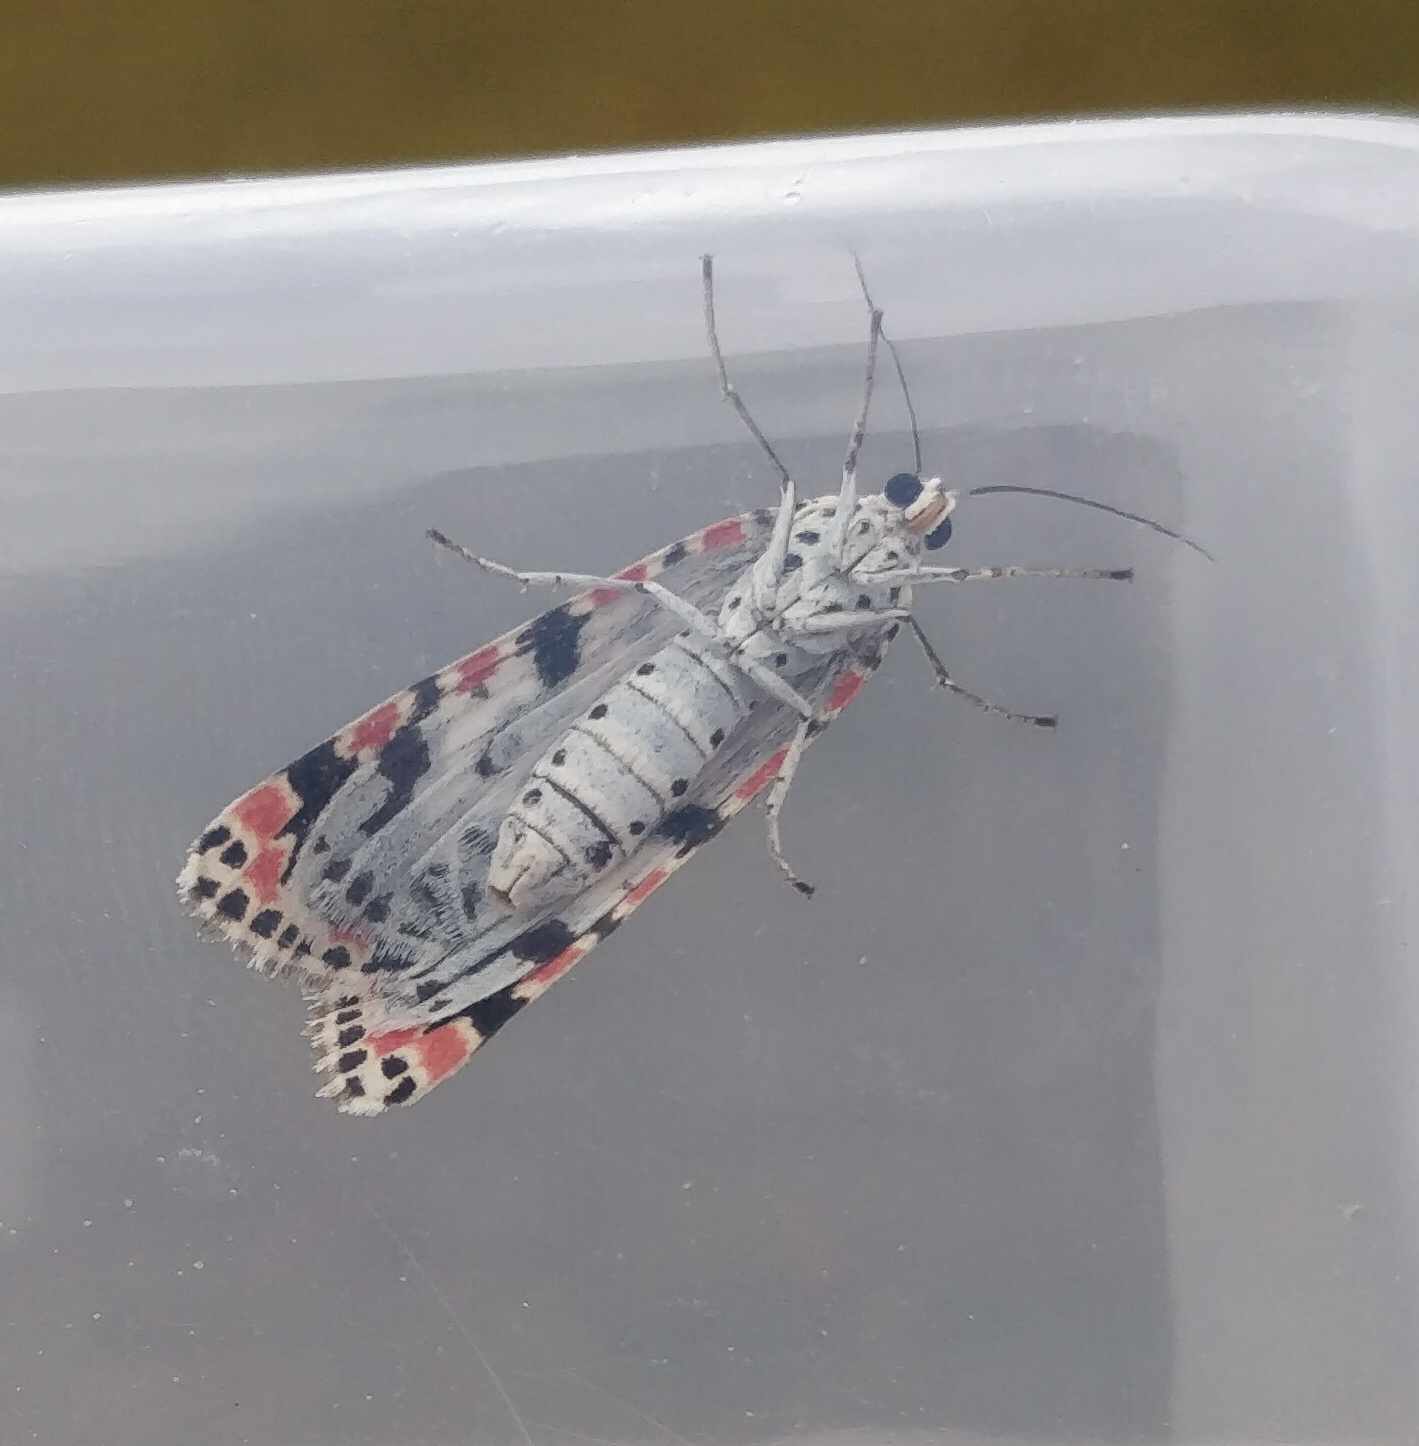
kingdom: Animalia
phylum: Arthropoda
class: Insecta
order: Lepidoptera
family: Erebidae
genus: Utetheisa
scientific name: Utetheisa pulchelloides
